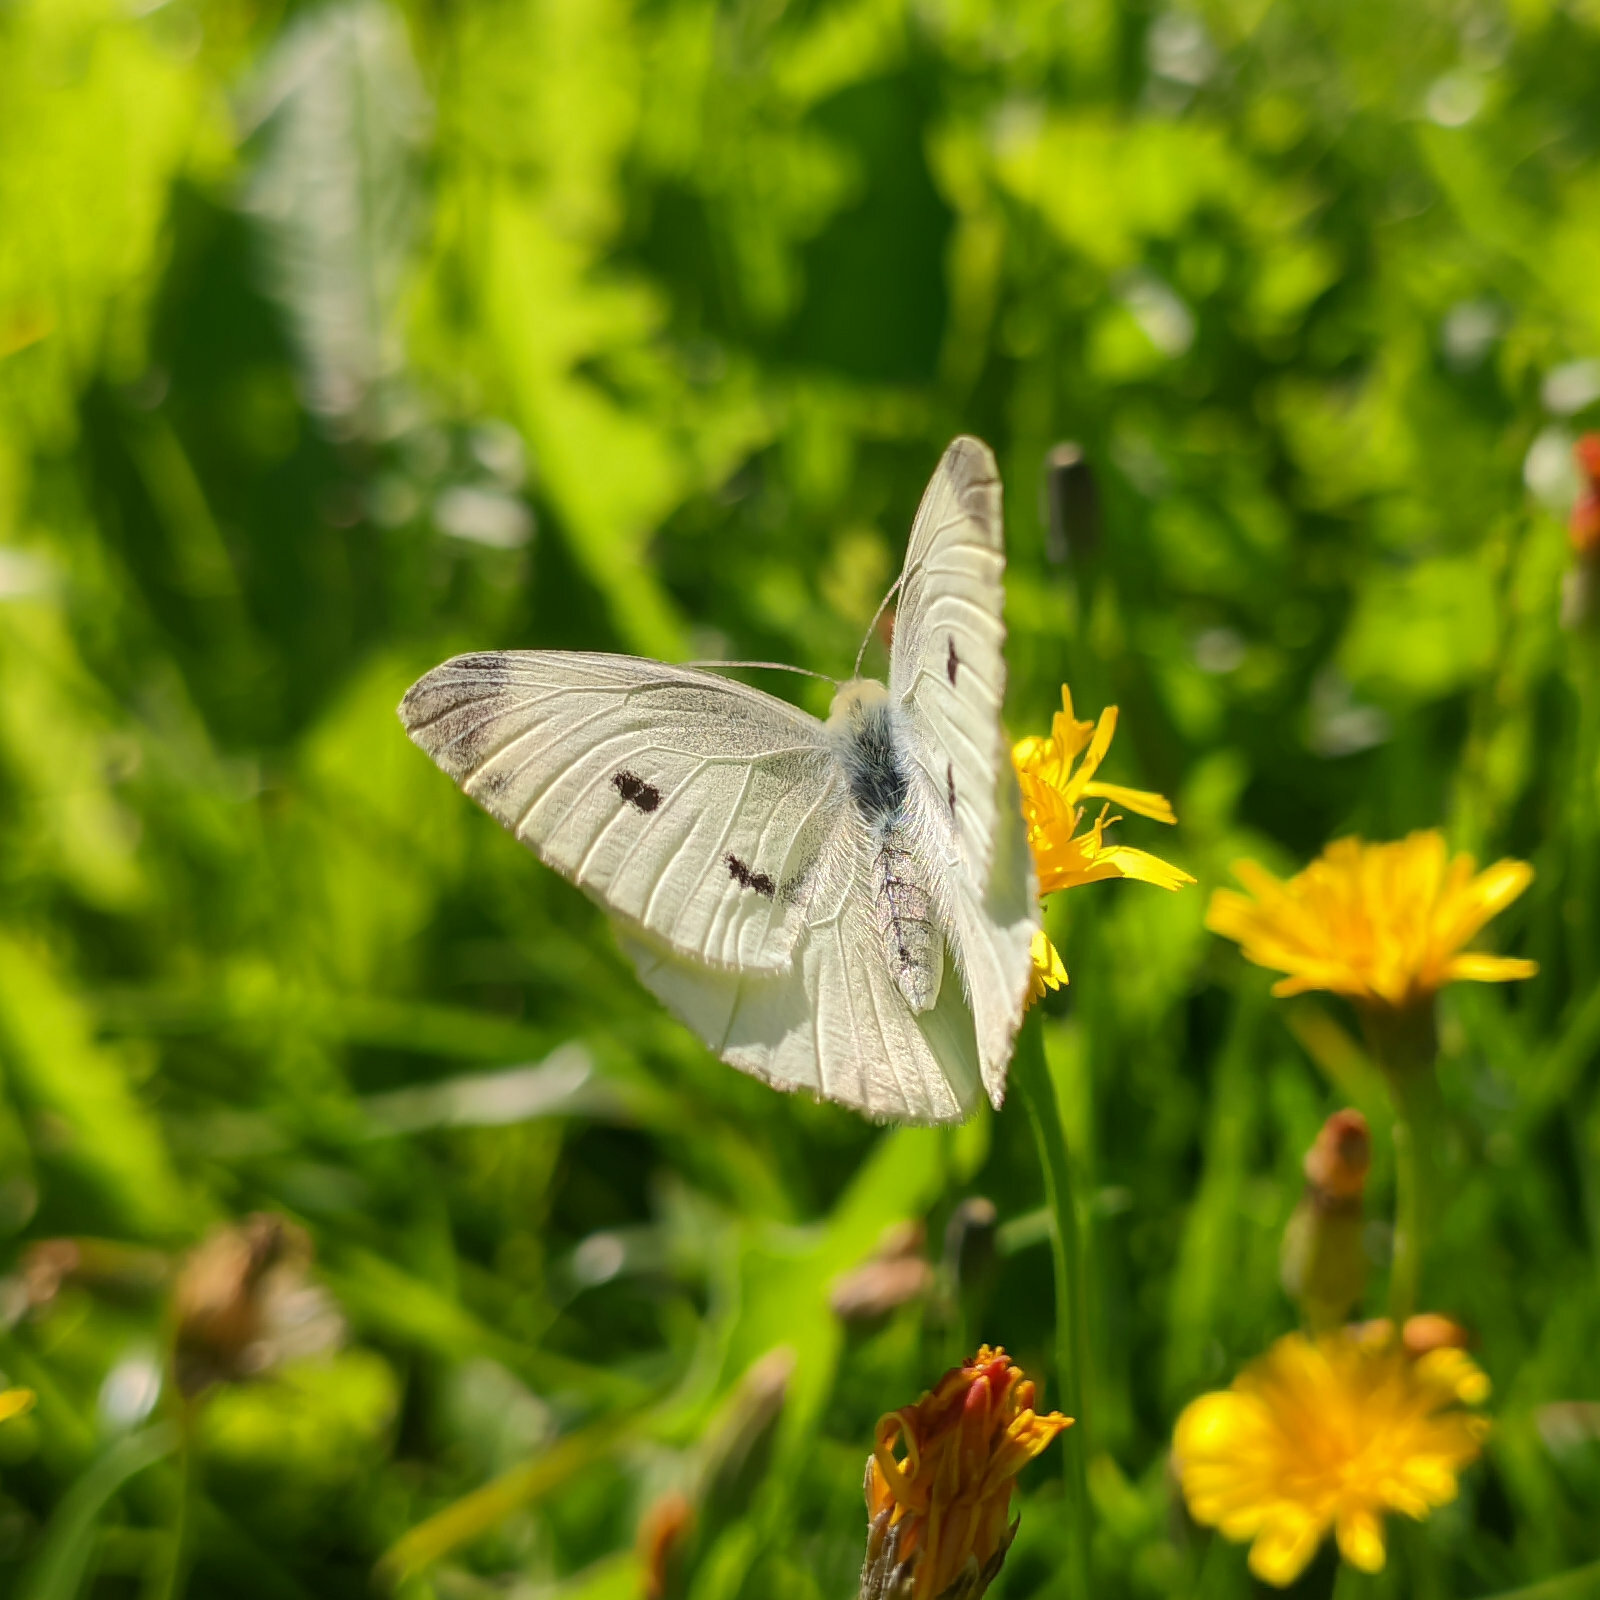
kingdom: Animalia
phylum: Arthropoda
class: Insecta
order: Lepidoptera
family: Pieridae
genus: Pieris
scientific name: Pieris rapae
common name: Small white
